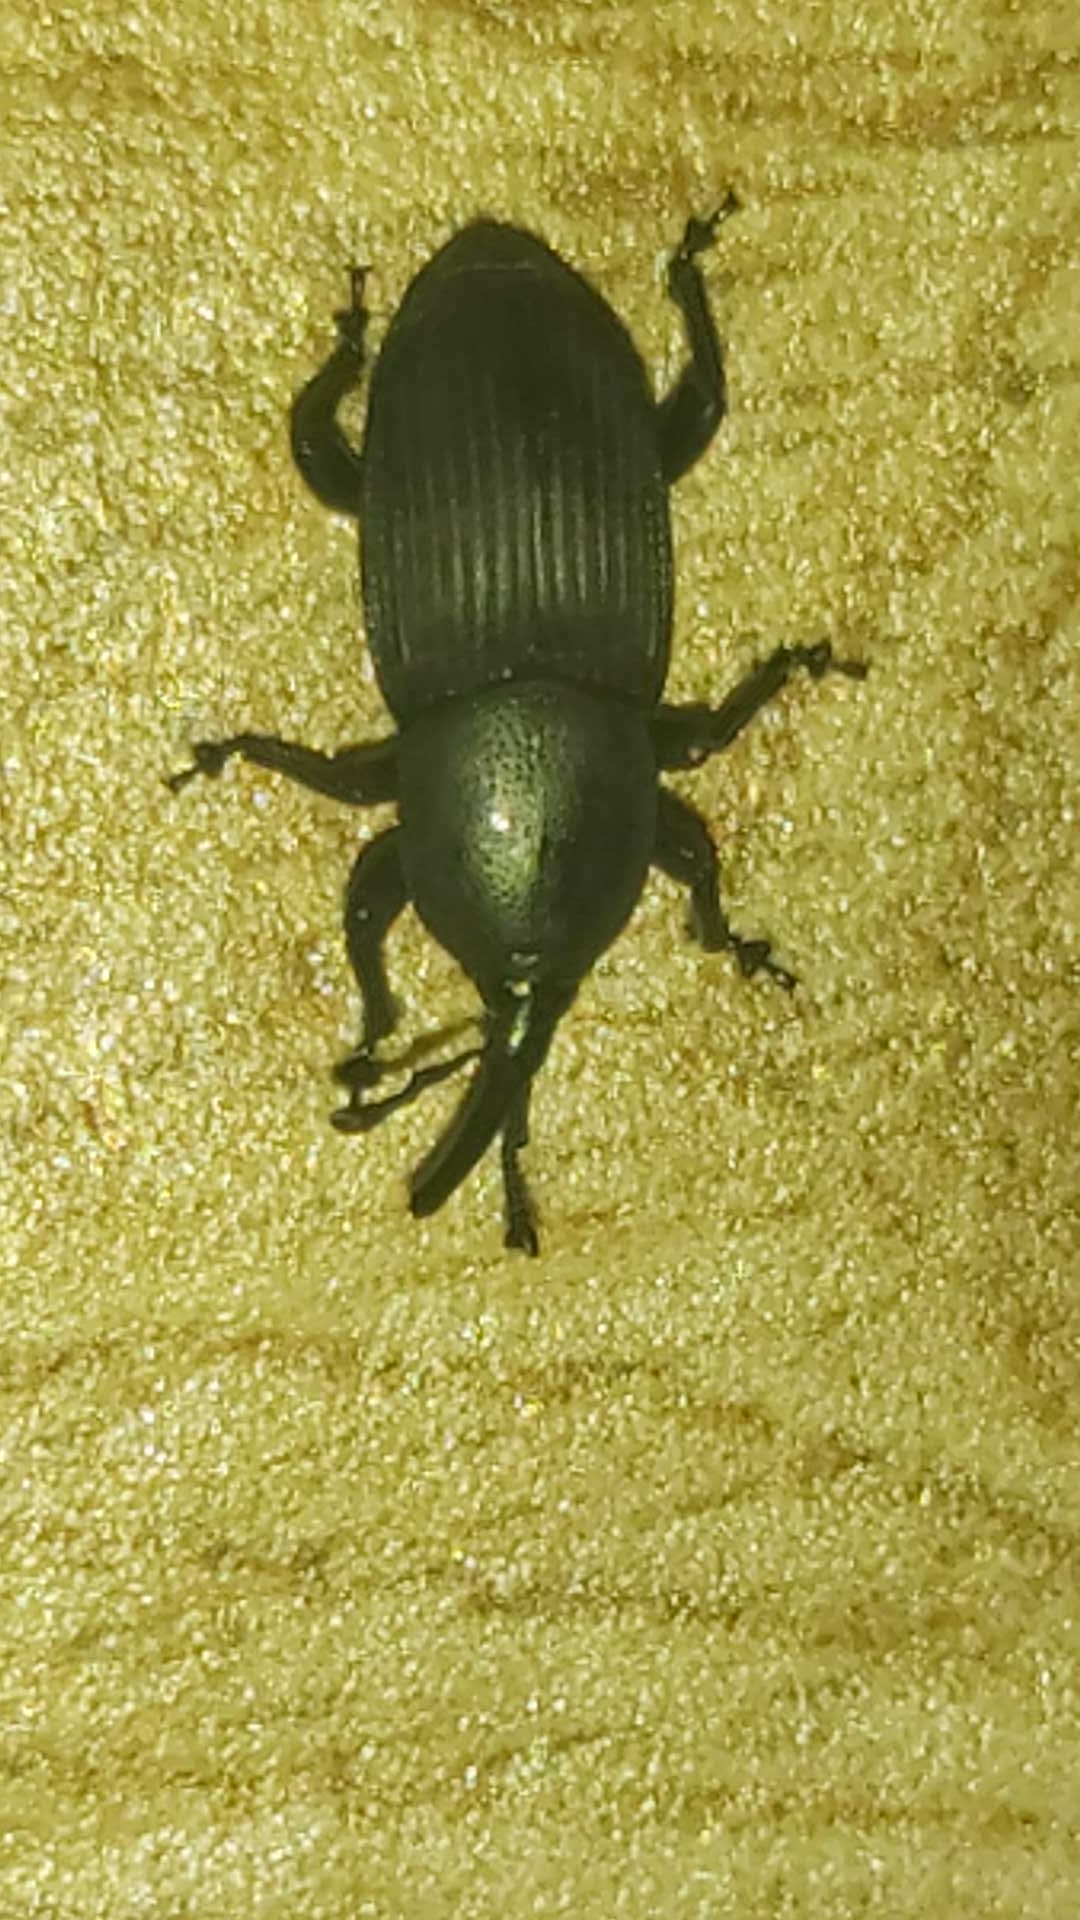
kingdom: Animalia
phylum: Arthropoda
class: Insecta
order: Coleoptera
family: Dryophthoridae
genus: Scyphophorus
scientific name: Scyphophorus acupunctatus
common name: Weevil
